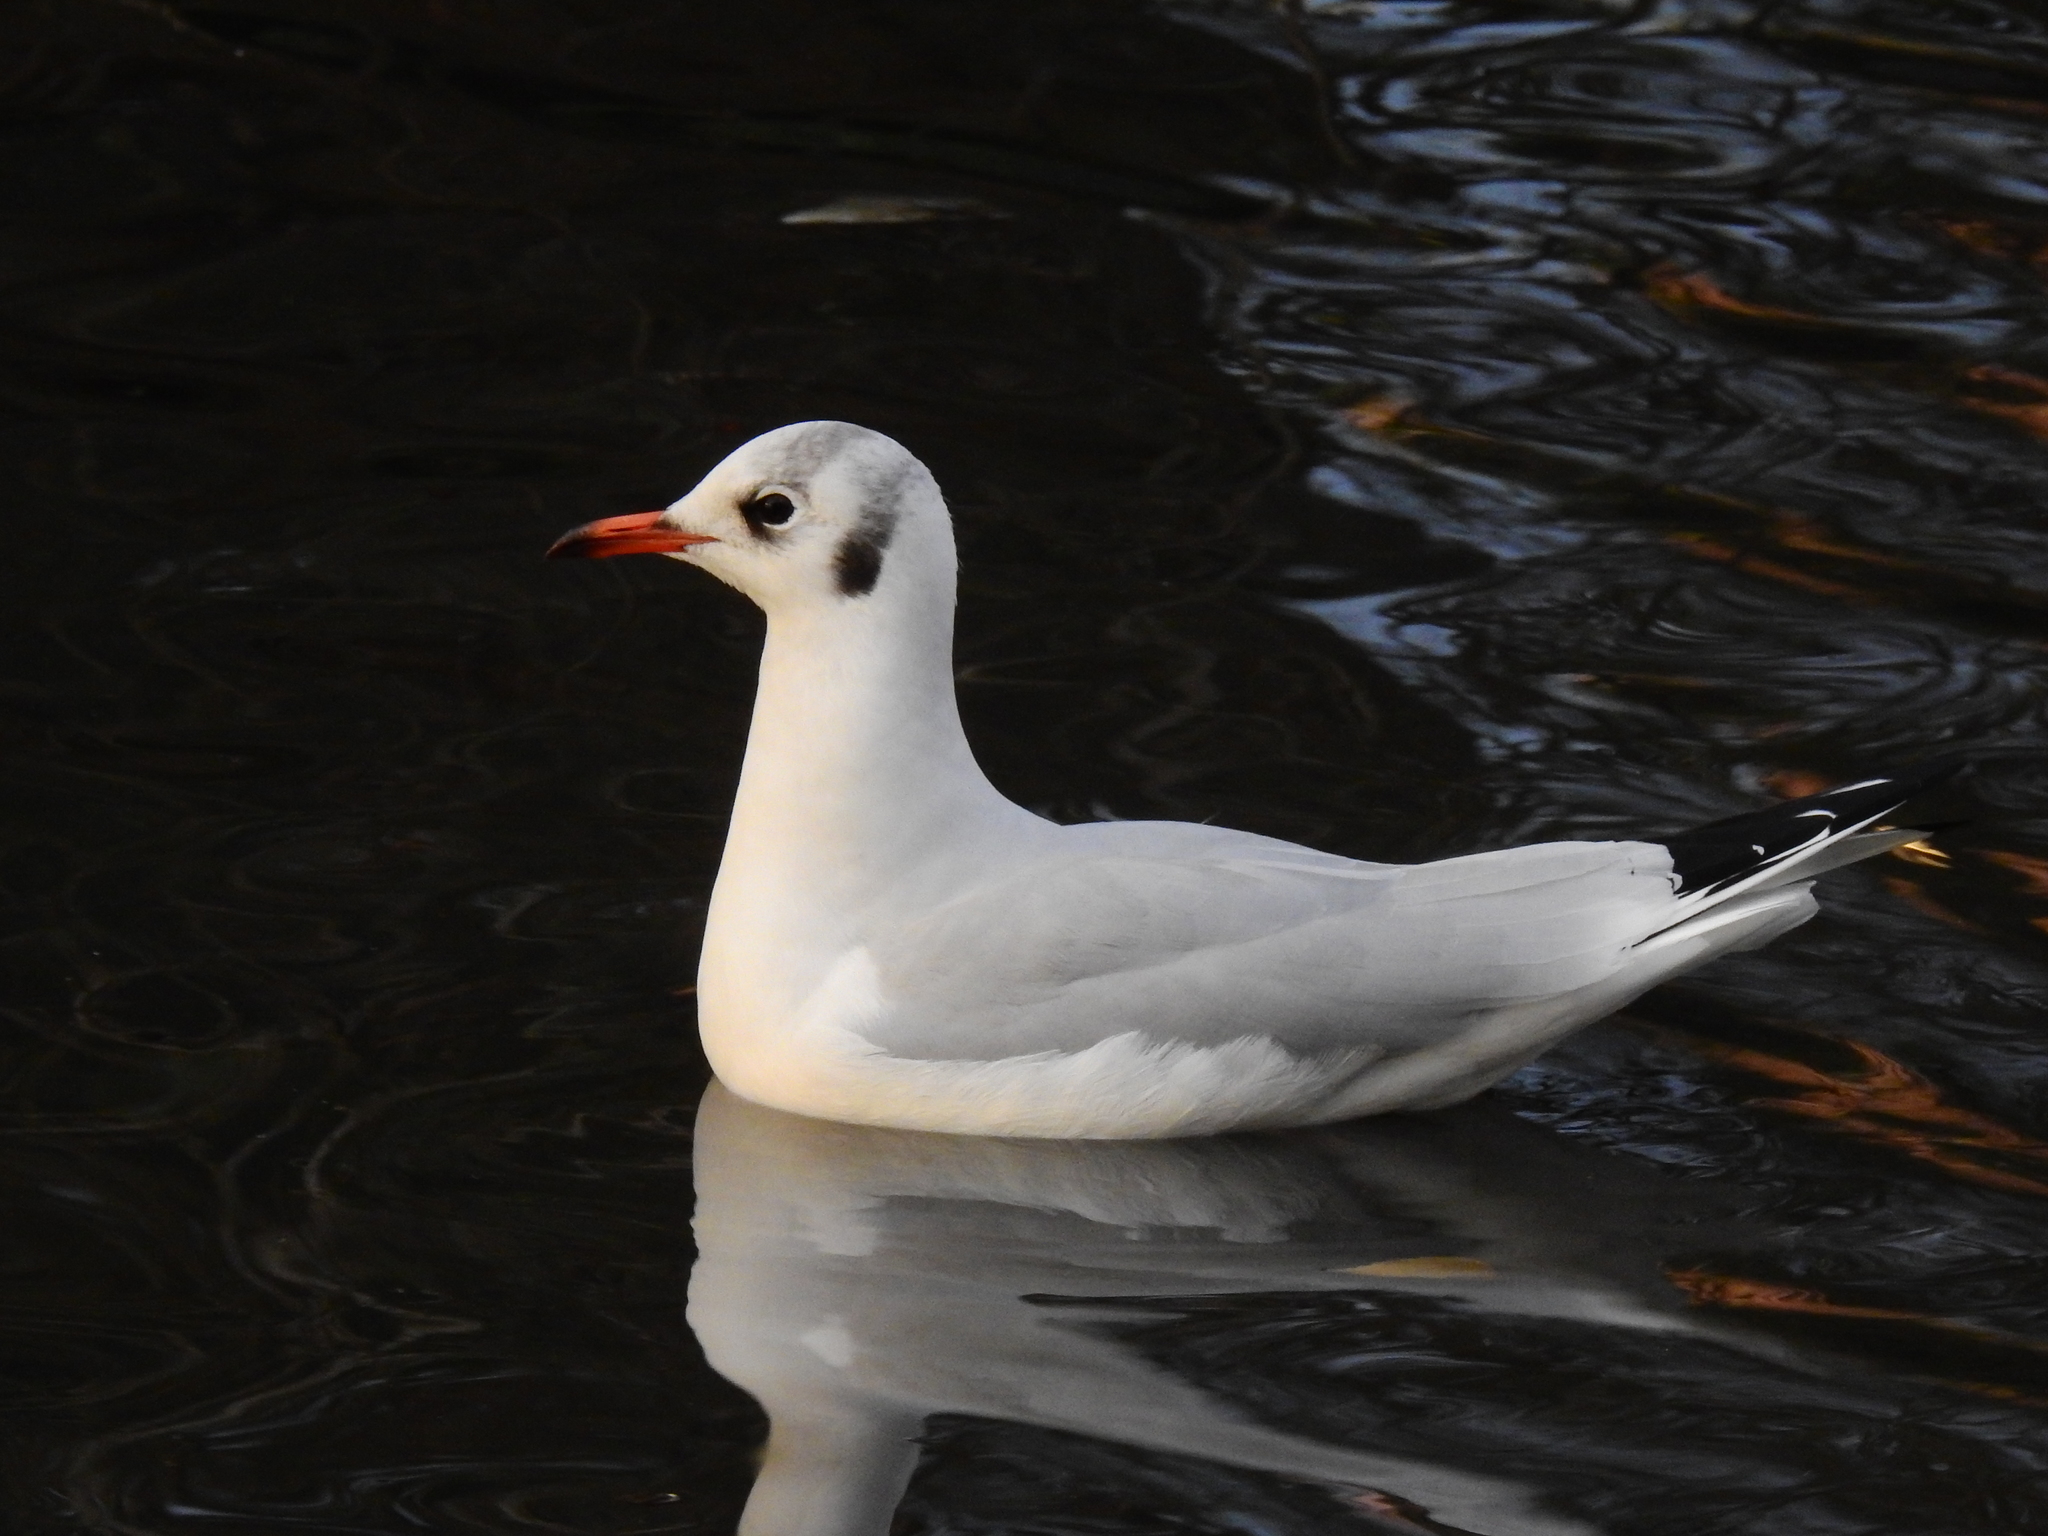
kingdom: Animalia
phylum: Chordata
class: Aves
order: Charadriiformes
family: Laridae
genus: Chroicocephalus
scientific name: Chroicocephalus ridibundus
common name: Black-headed gull
